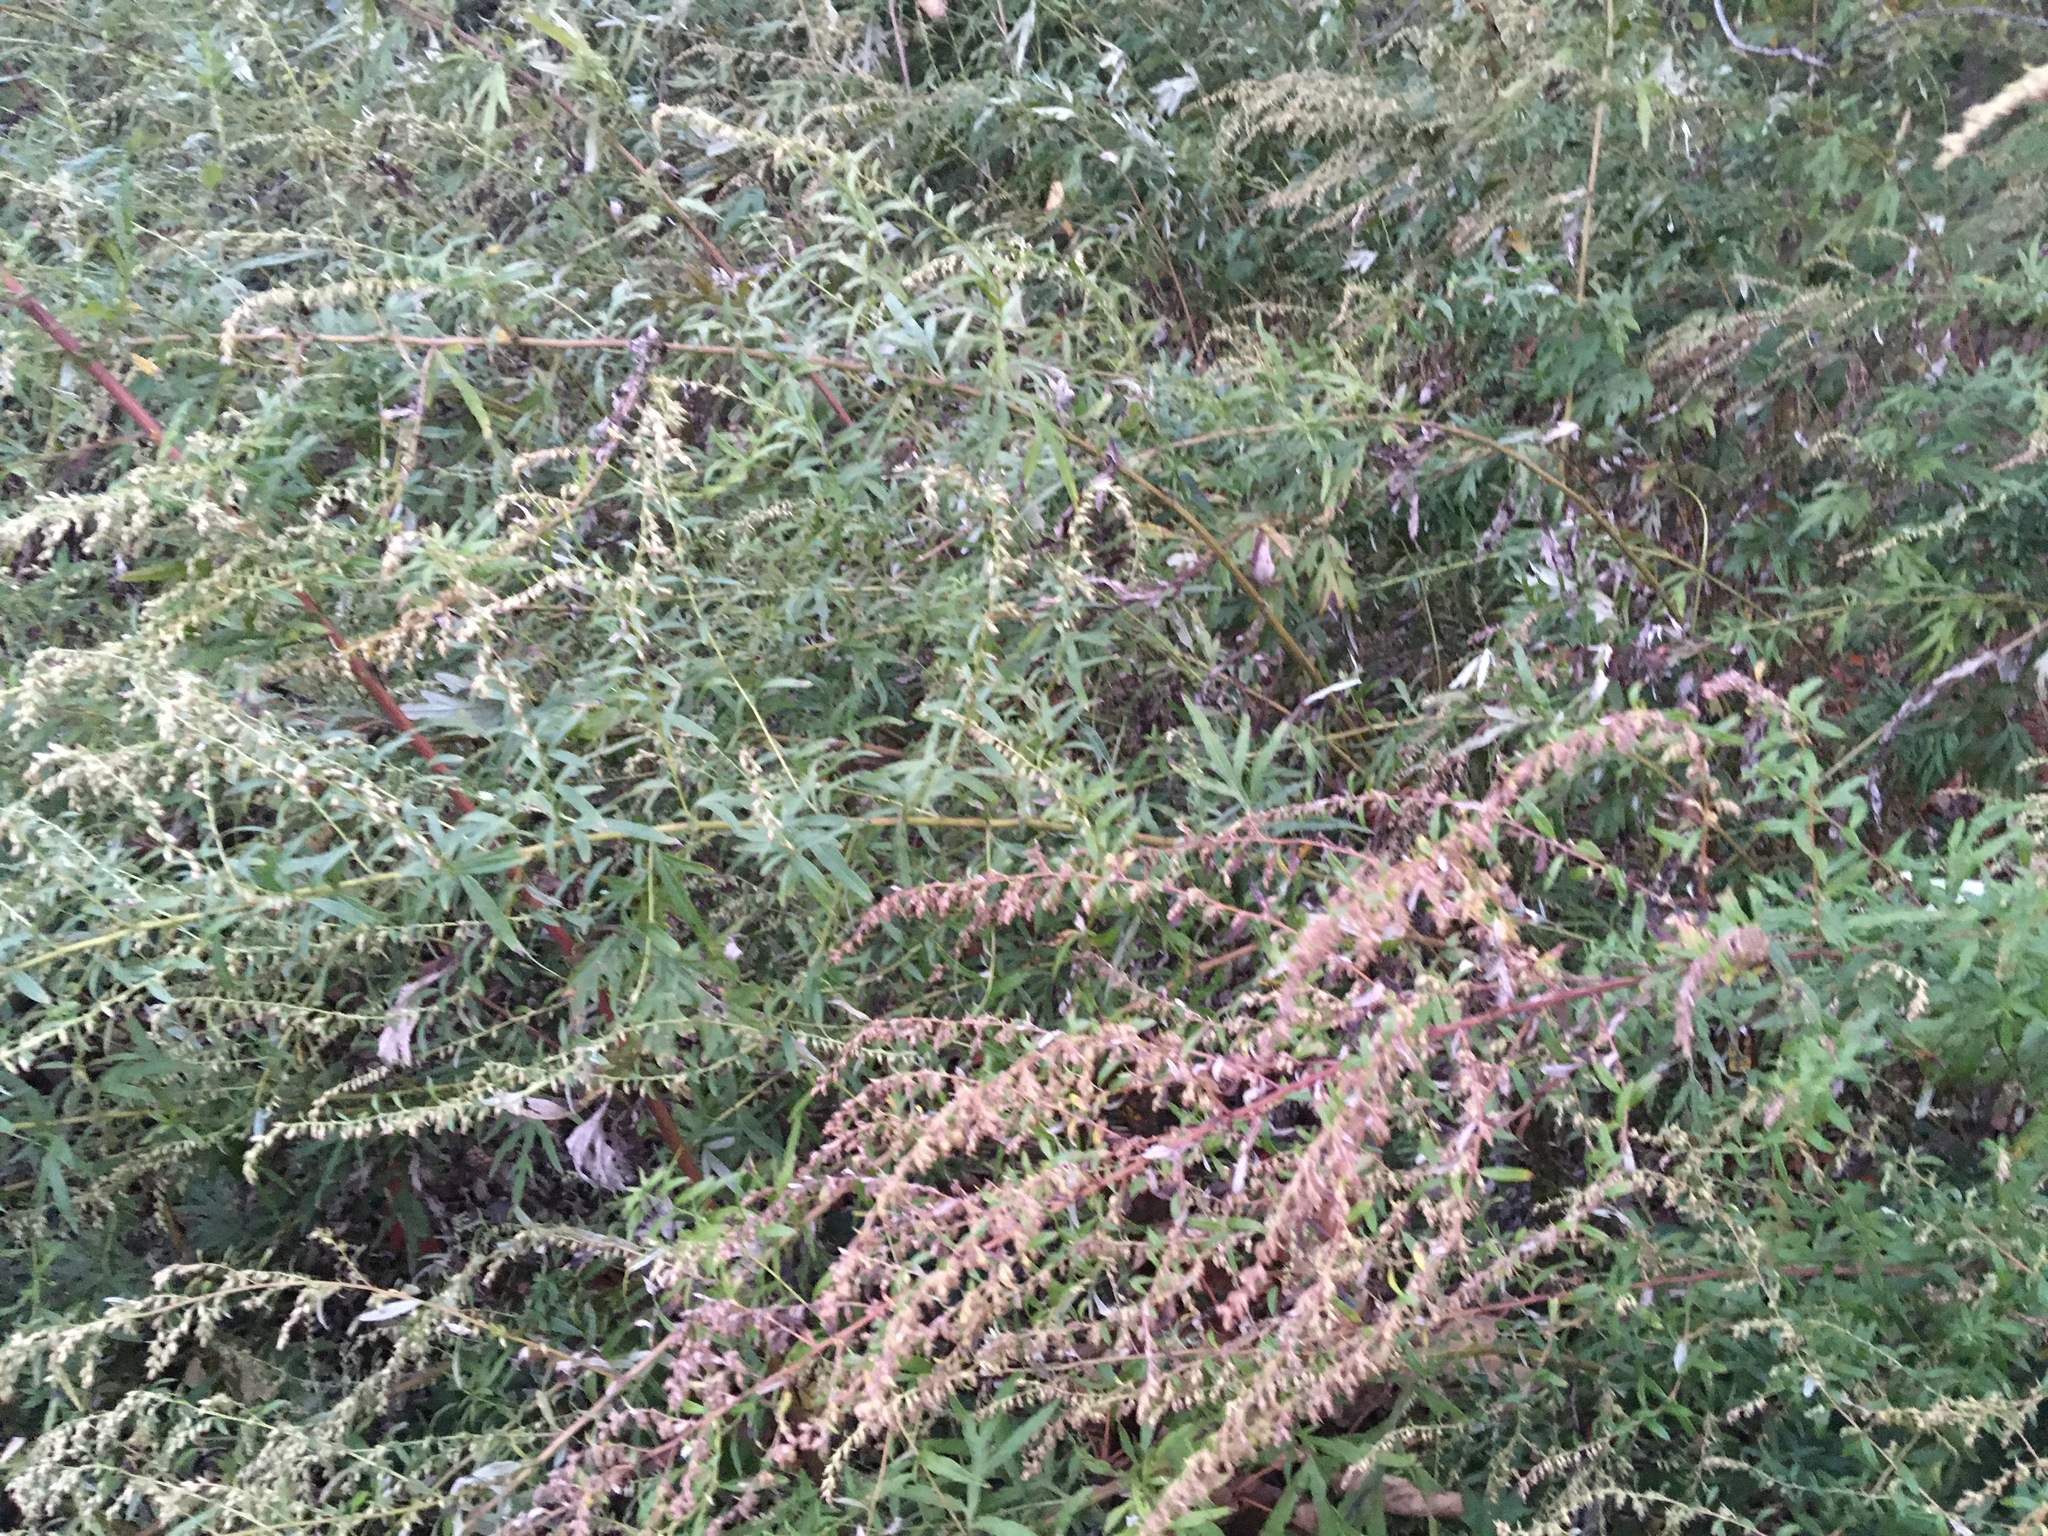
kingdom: Plantae
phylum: Tracheophyta
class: Magnoliopsida
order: Asterales
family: Asteraceae
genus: Artemisia
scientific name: Artemisia vulgaris
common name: Mugwort
